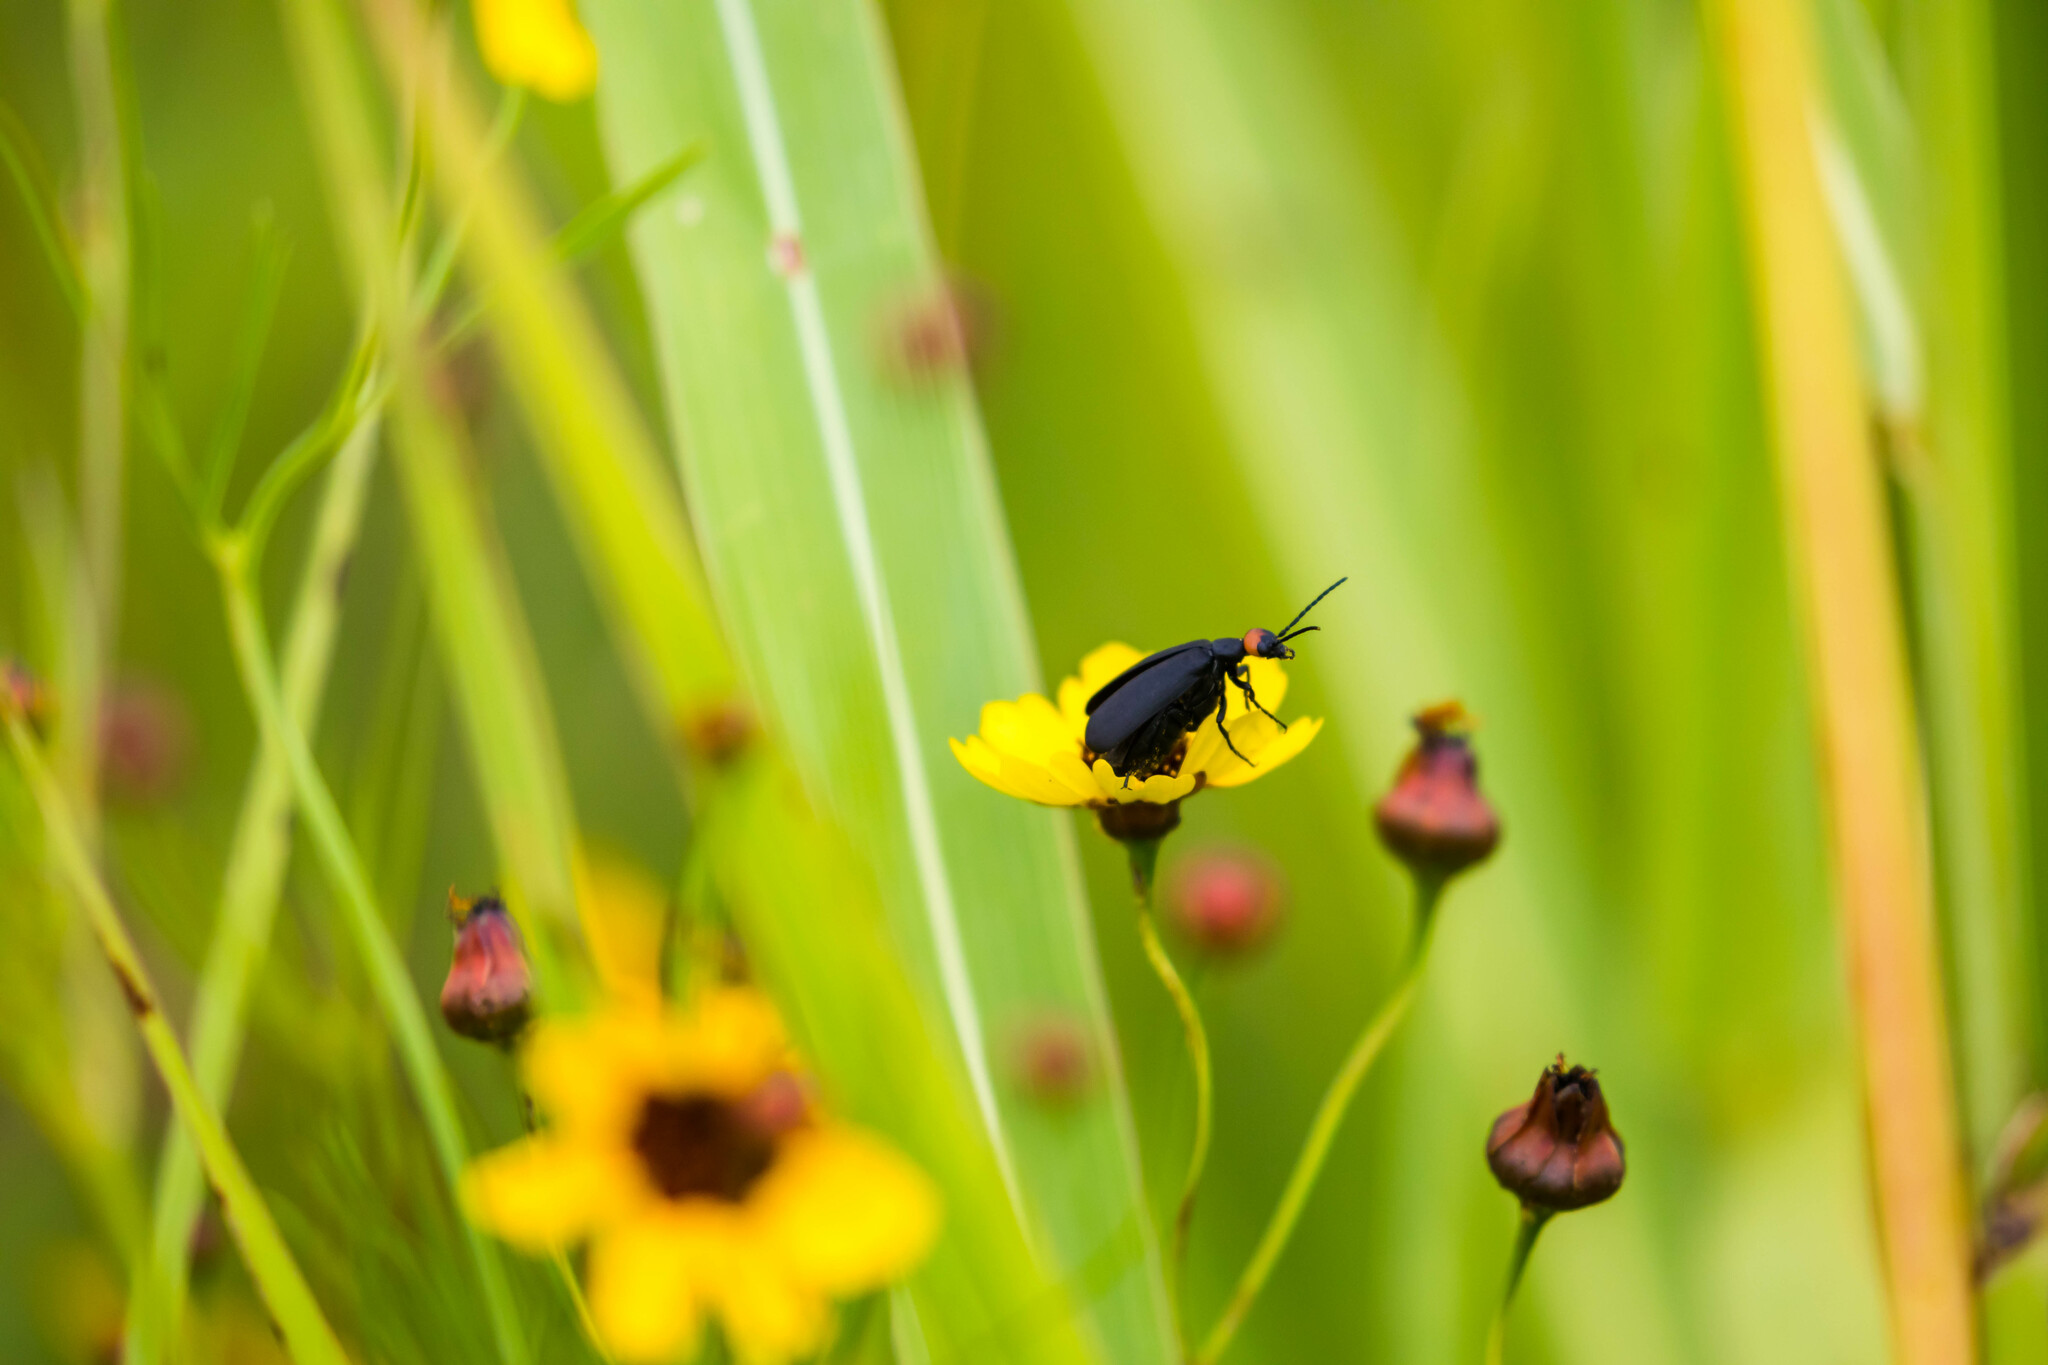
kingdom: Animalia
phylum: Arthropoda
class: Insecta
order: Coleoptera
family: Meloidae
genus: Epicauta
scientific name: Epicauta atrata
